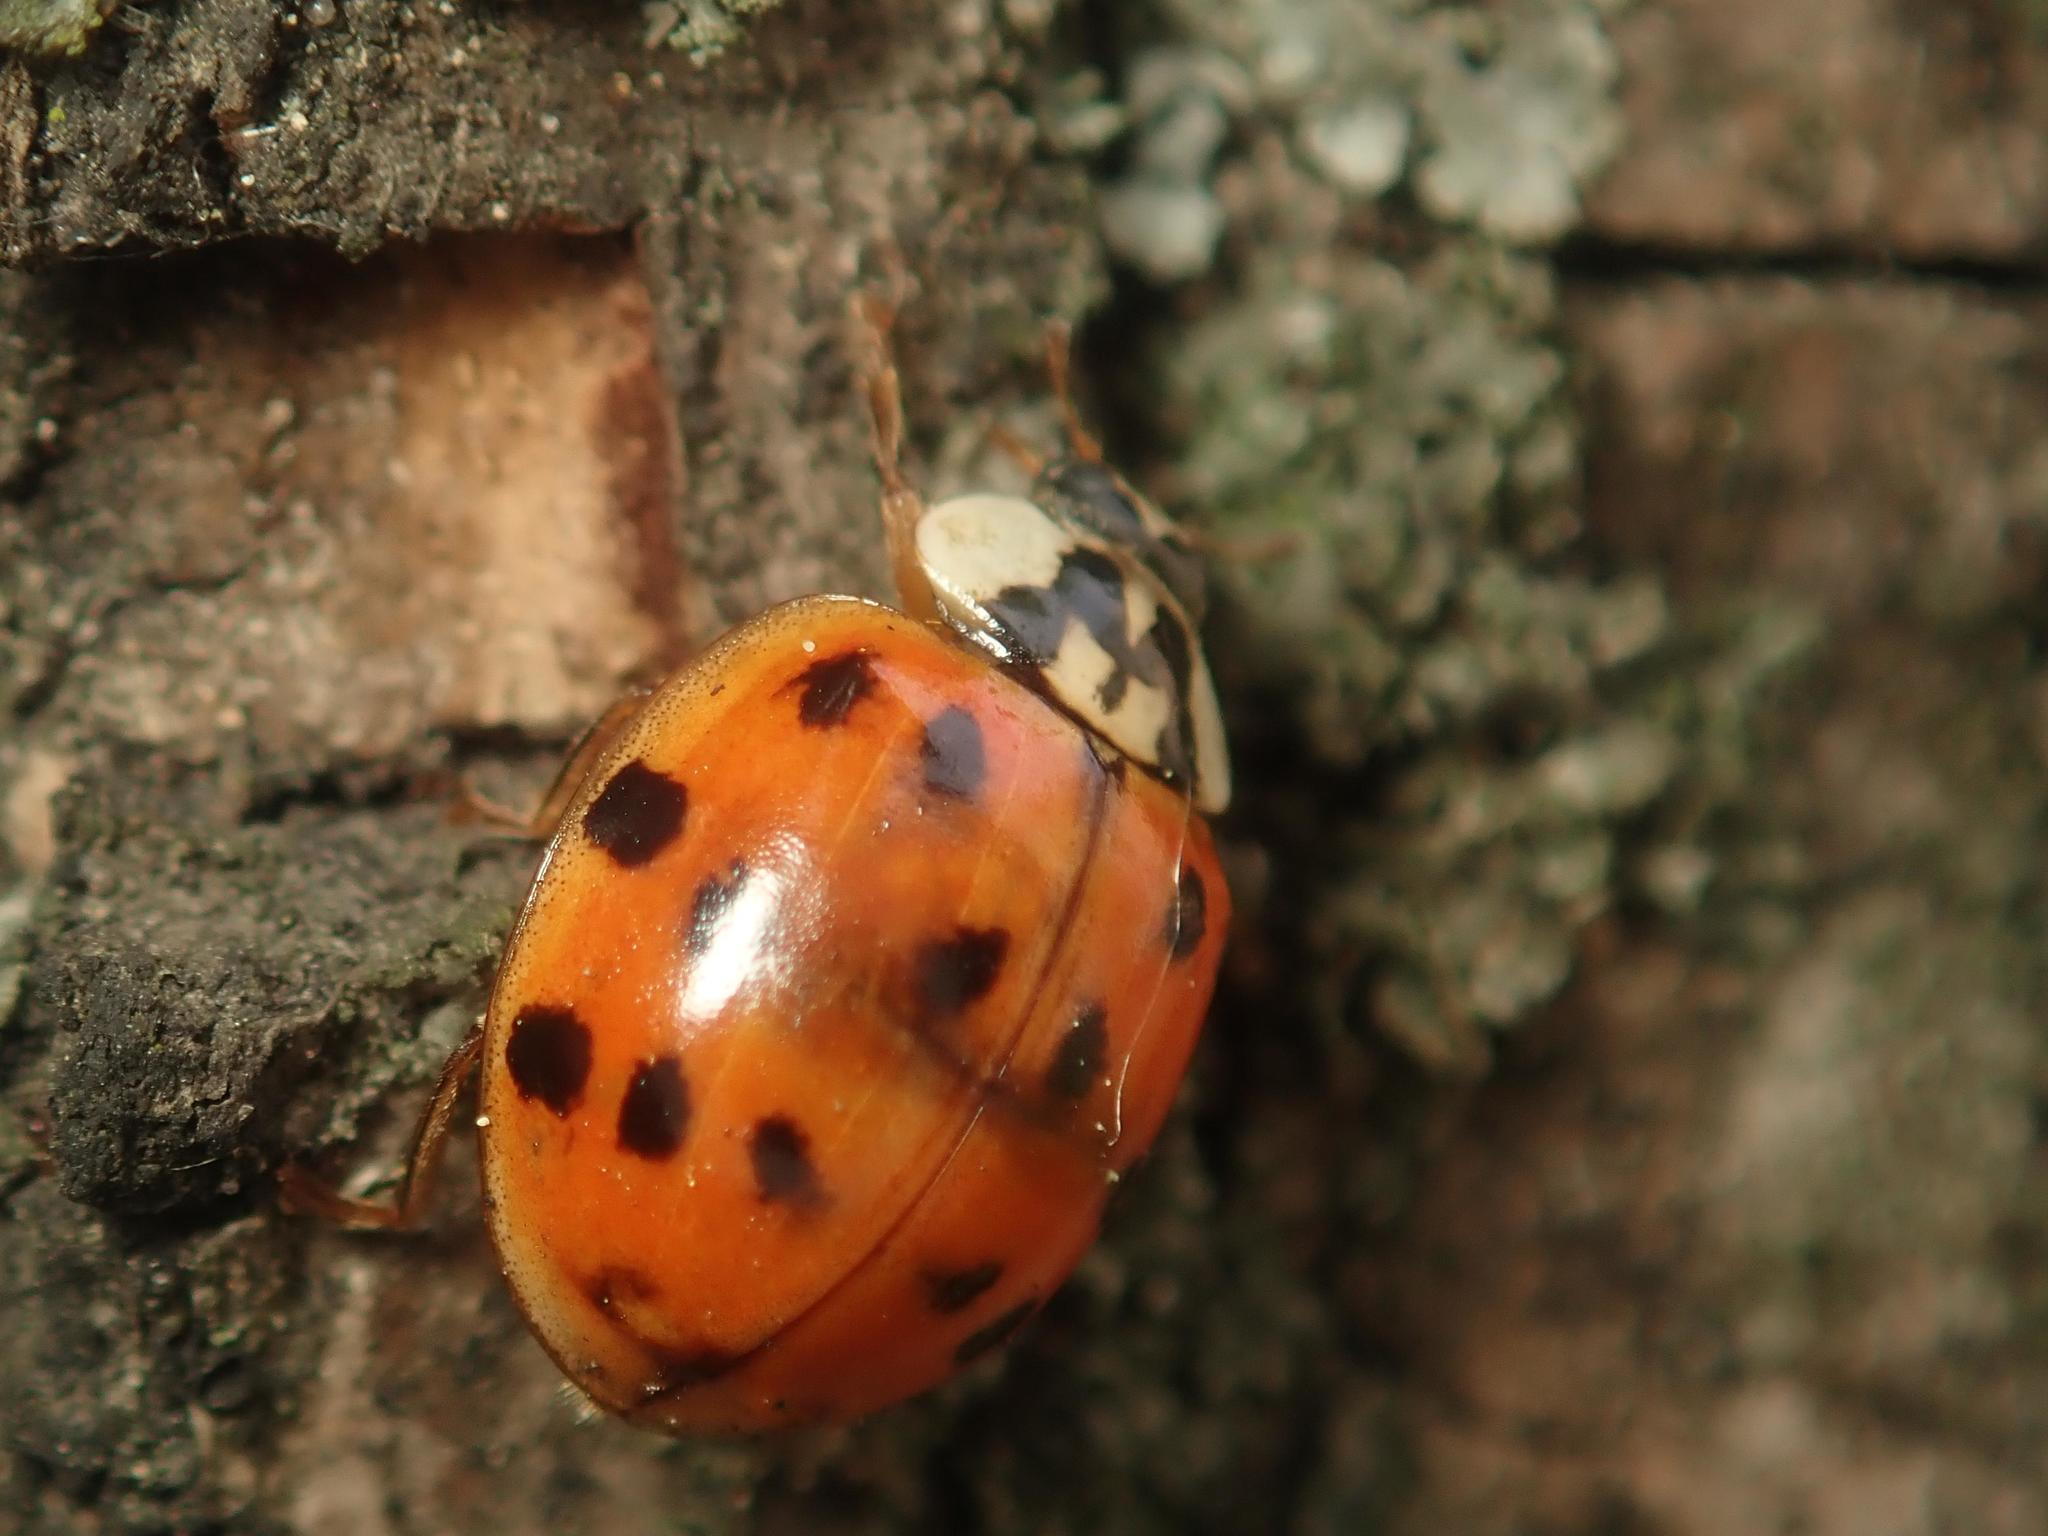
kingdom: Animalia
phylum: Arthropoda
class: Insecta
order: Coleoptera
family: Coccinellidae
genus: Harmonia
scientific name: Harmonia axyridis
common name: Harlequin ladybird
